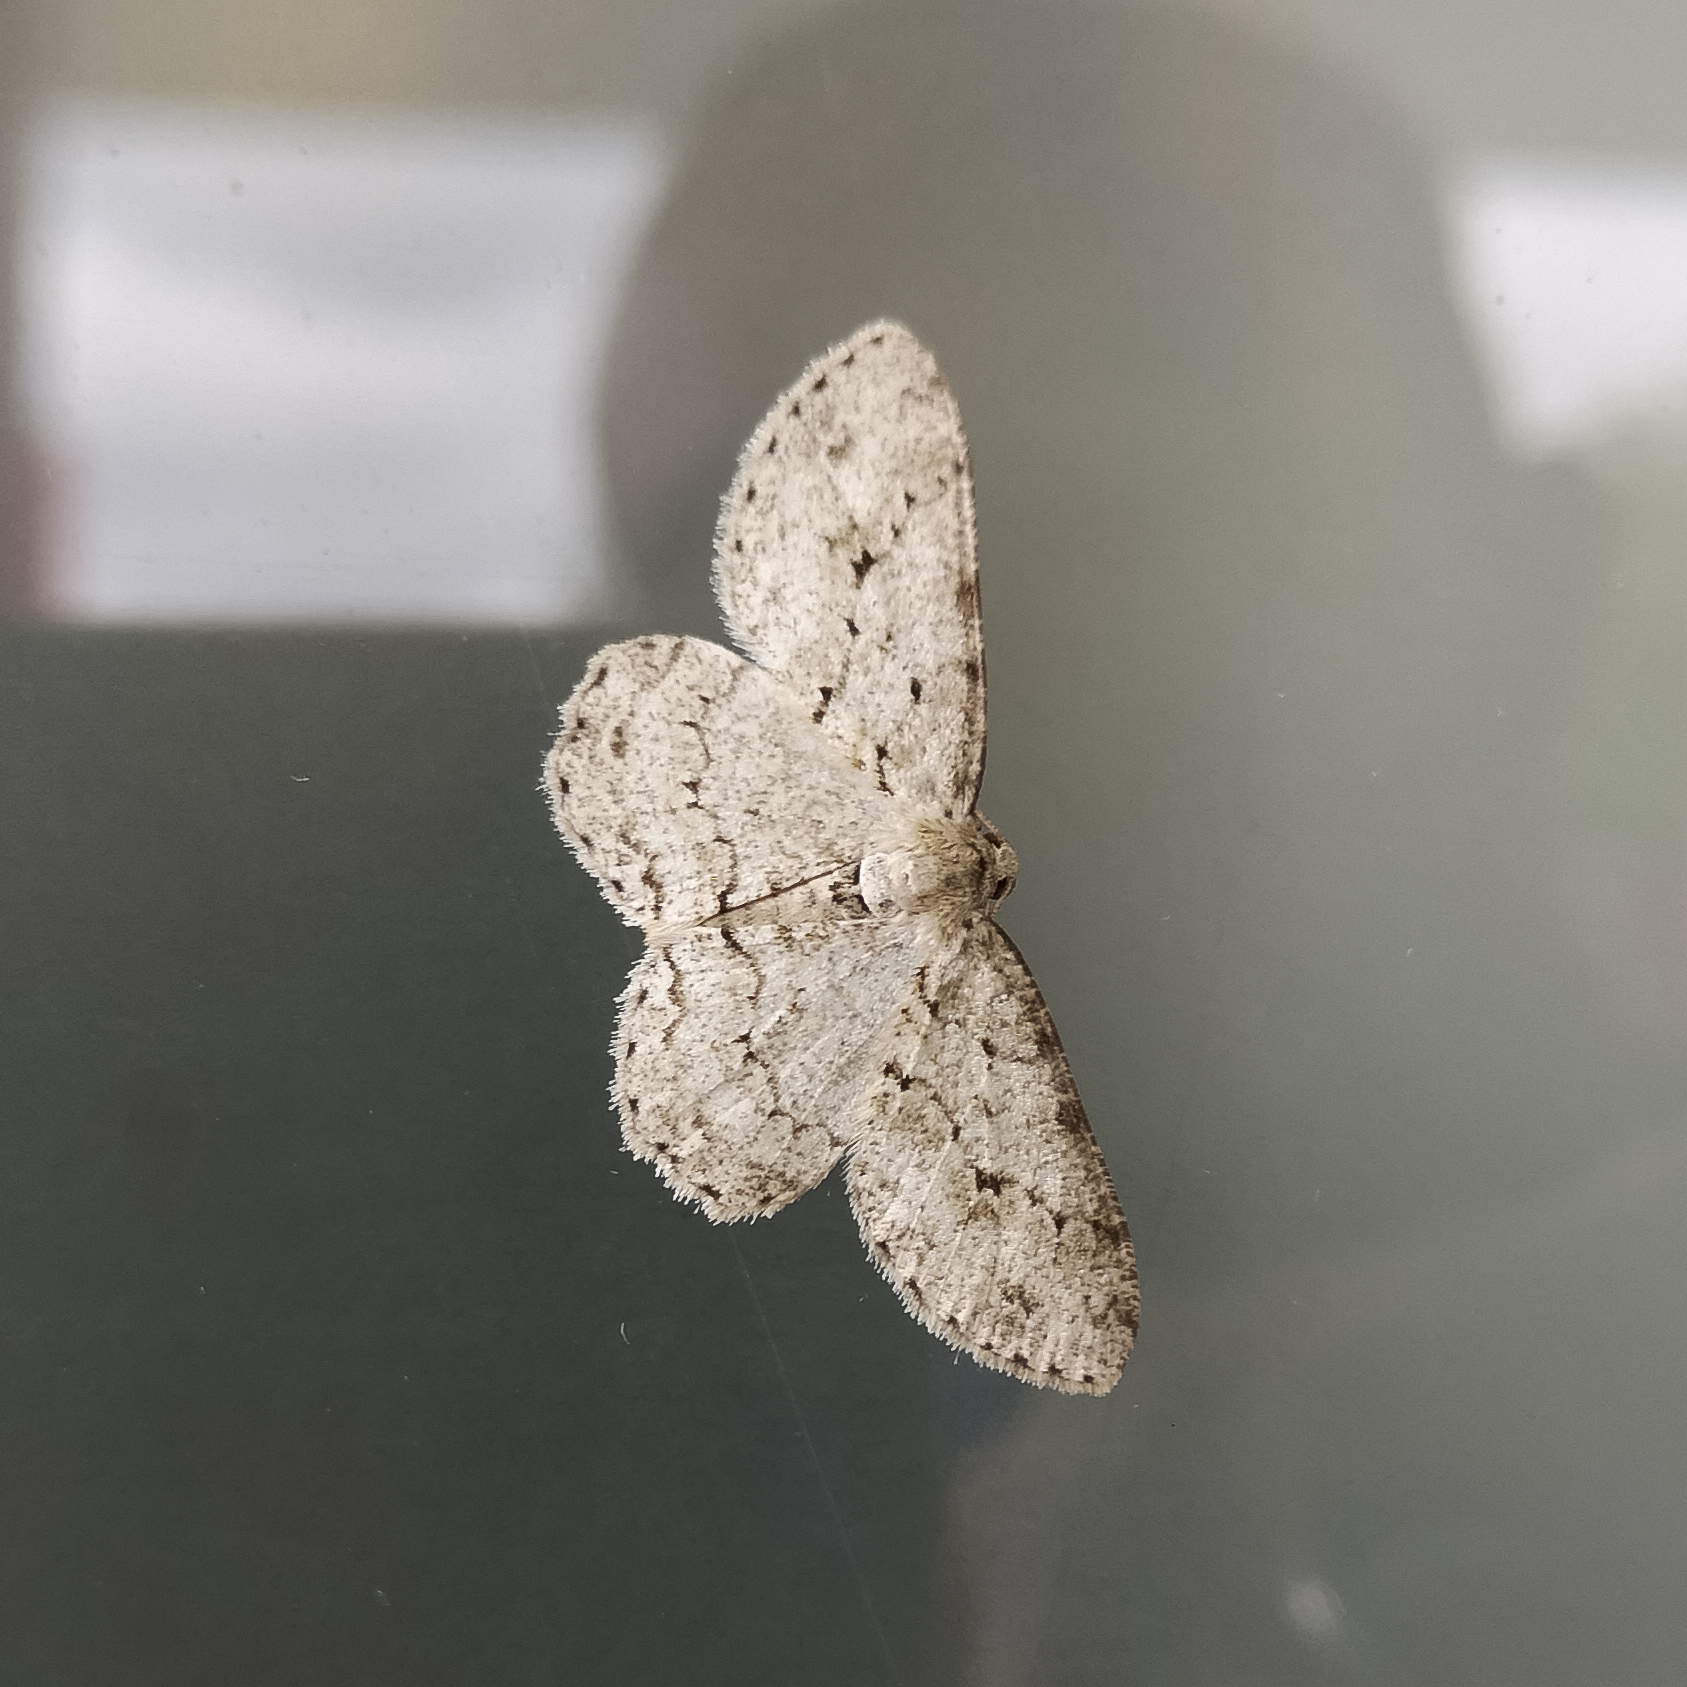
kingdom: Animalia
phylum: Arthropoda
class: Insecta
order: Lepidoptera
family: Geometridae
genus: Ectropis
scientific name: Ectropis crepuscularia
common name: Engrailed
